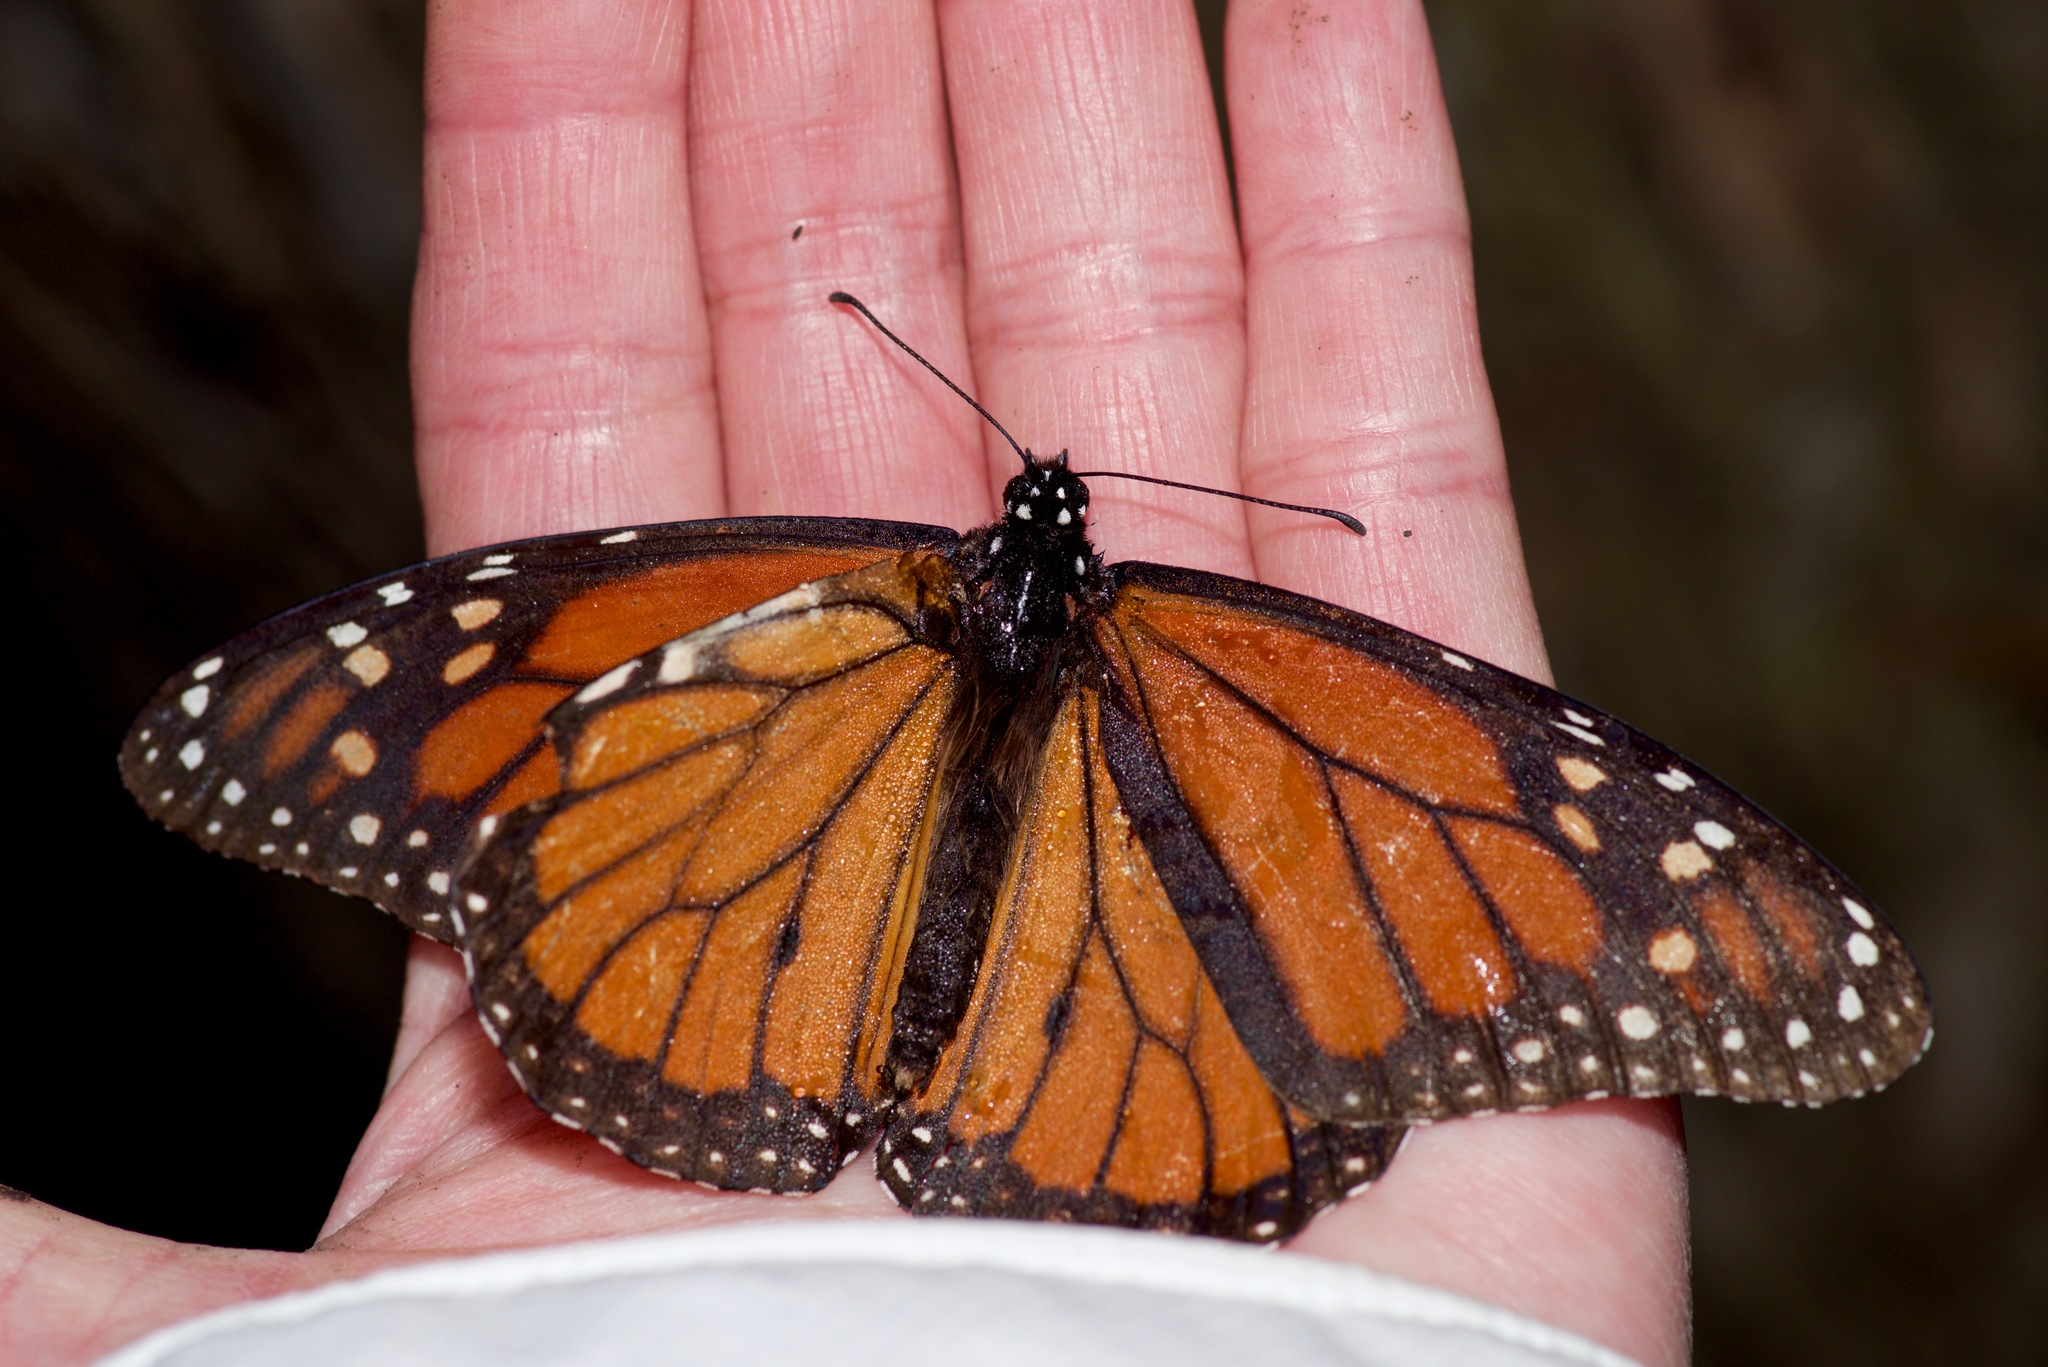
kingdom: Animalia
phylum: Arthropoda
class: Insecta
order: Lepidoptera
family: Nymphalidae
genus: Danaus
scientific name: Danaus plexippus
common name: Monarch
